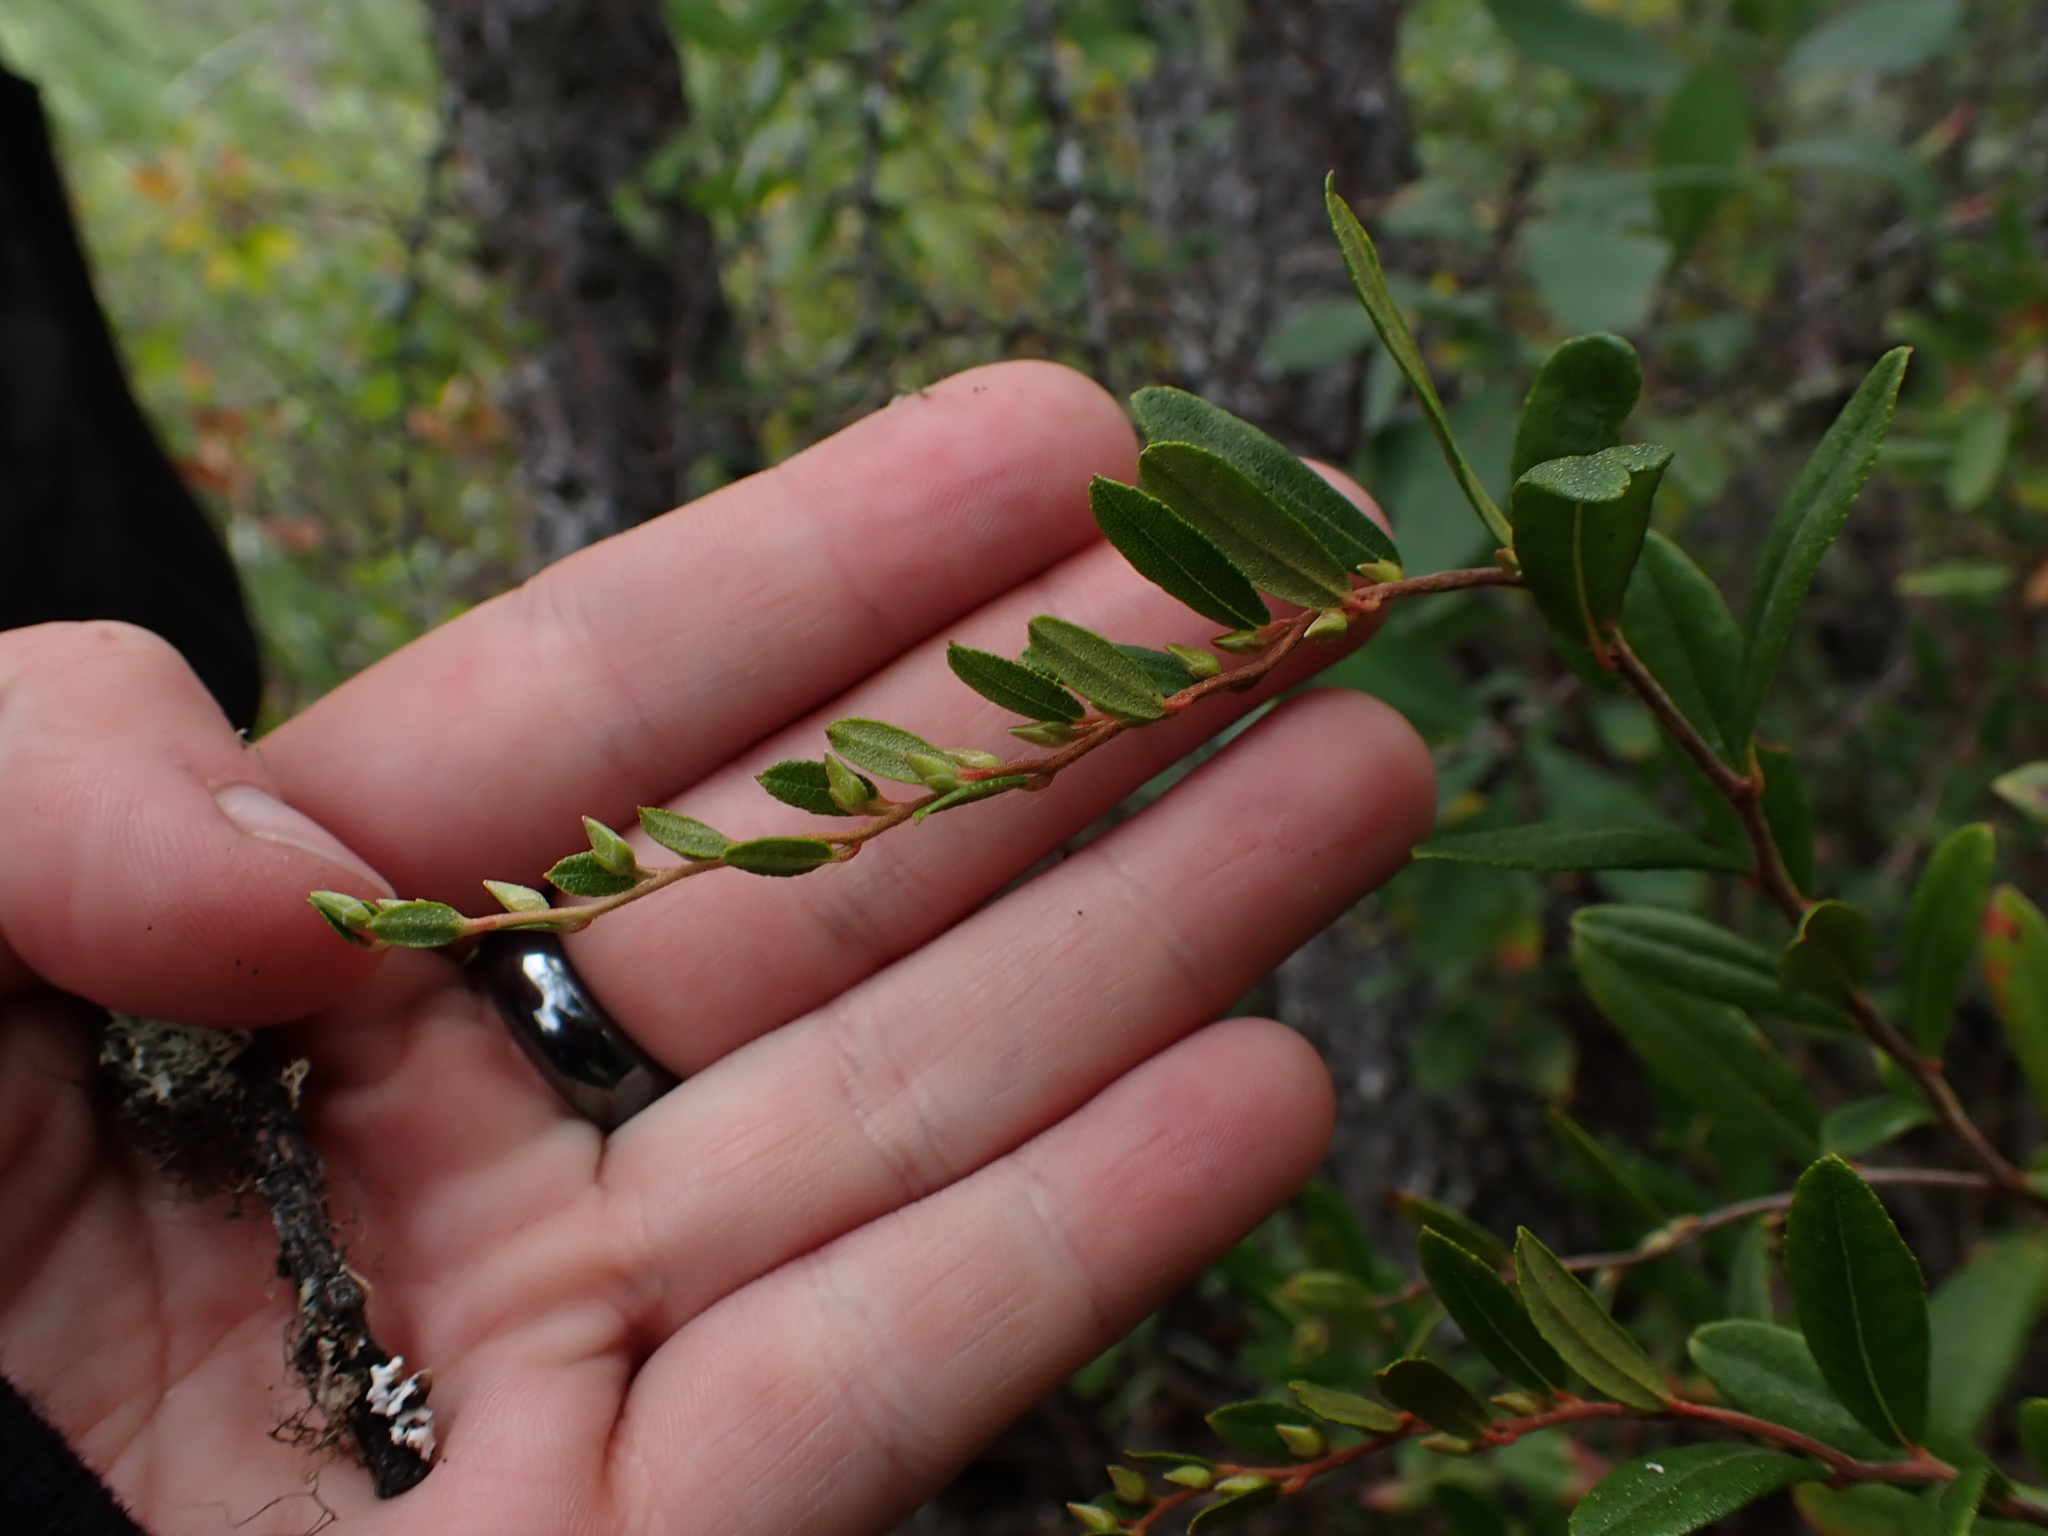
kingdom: Plantae
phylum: Tracheophyta
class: Magnoliopsida
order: Ericales
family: Ericaceae
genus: Chamaedaphne
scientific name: Chamaedaphne calyculata
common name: Leatherleaf
